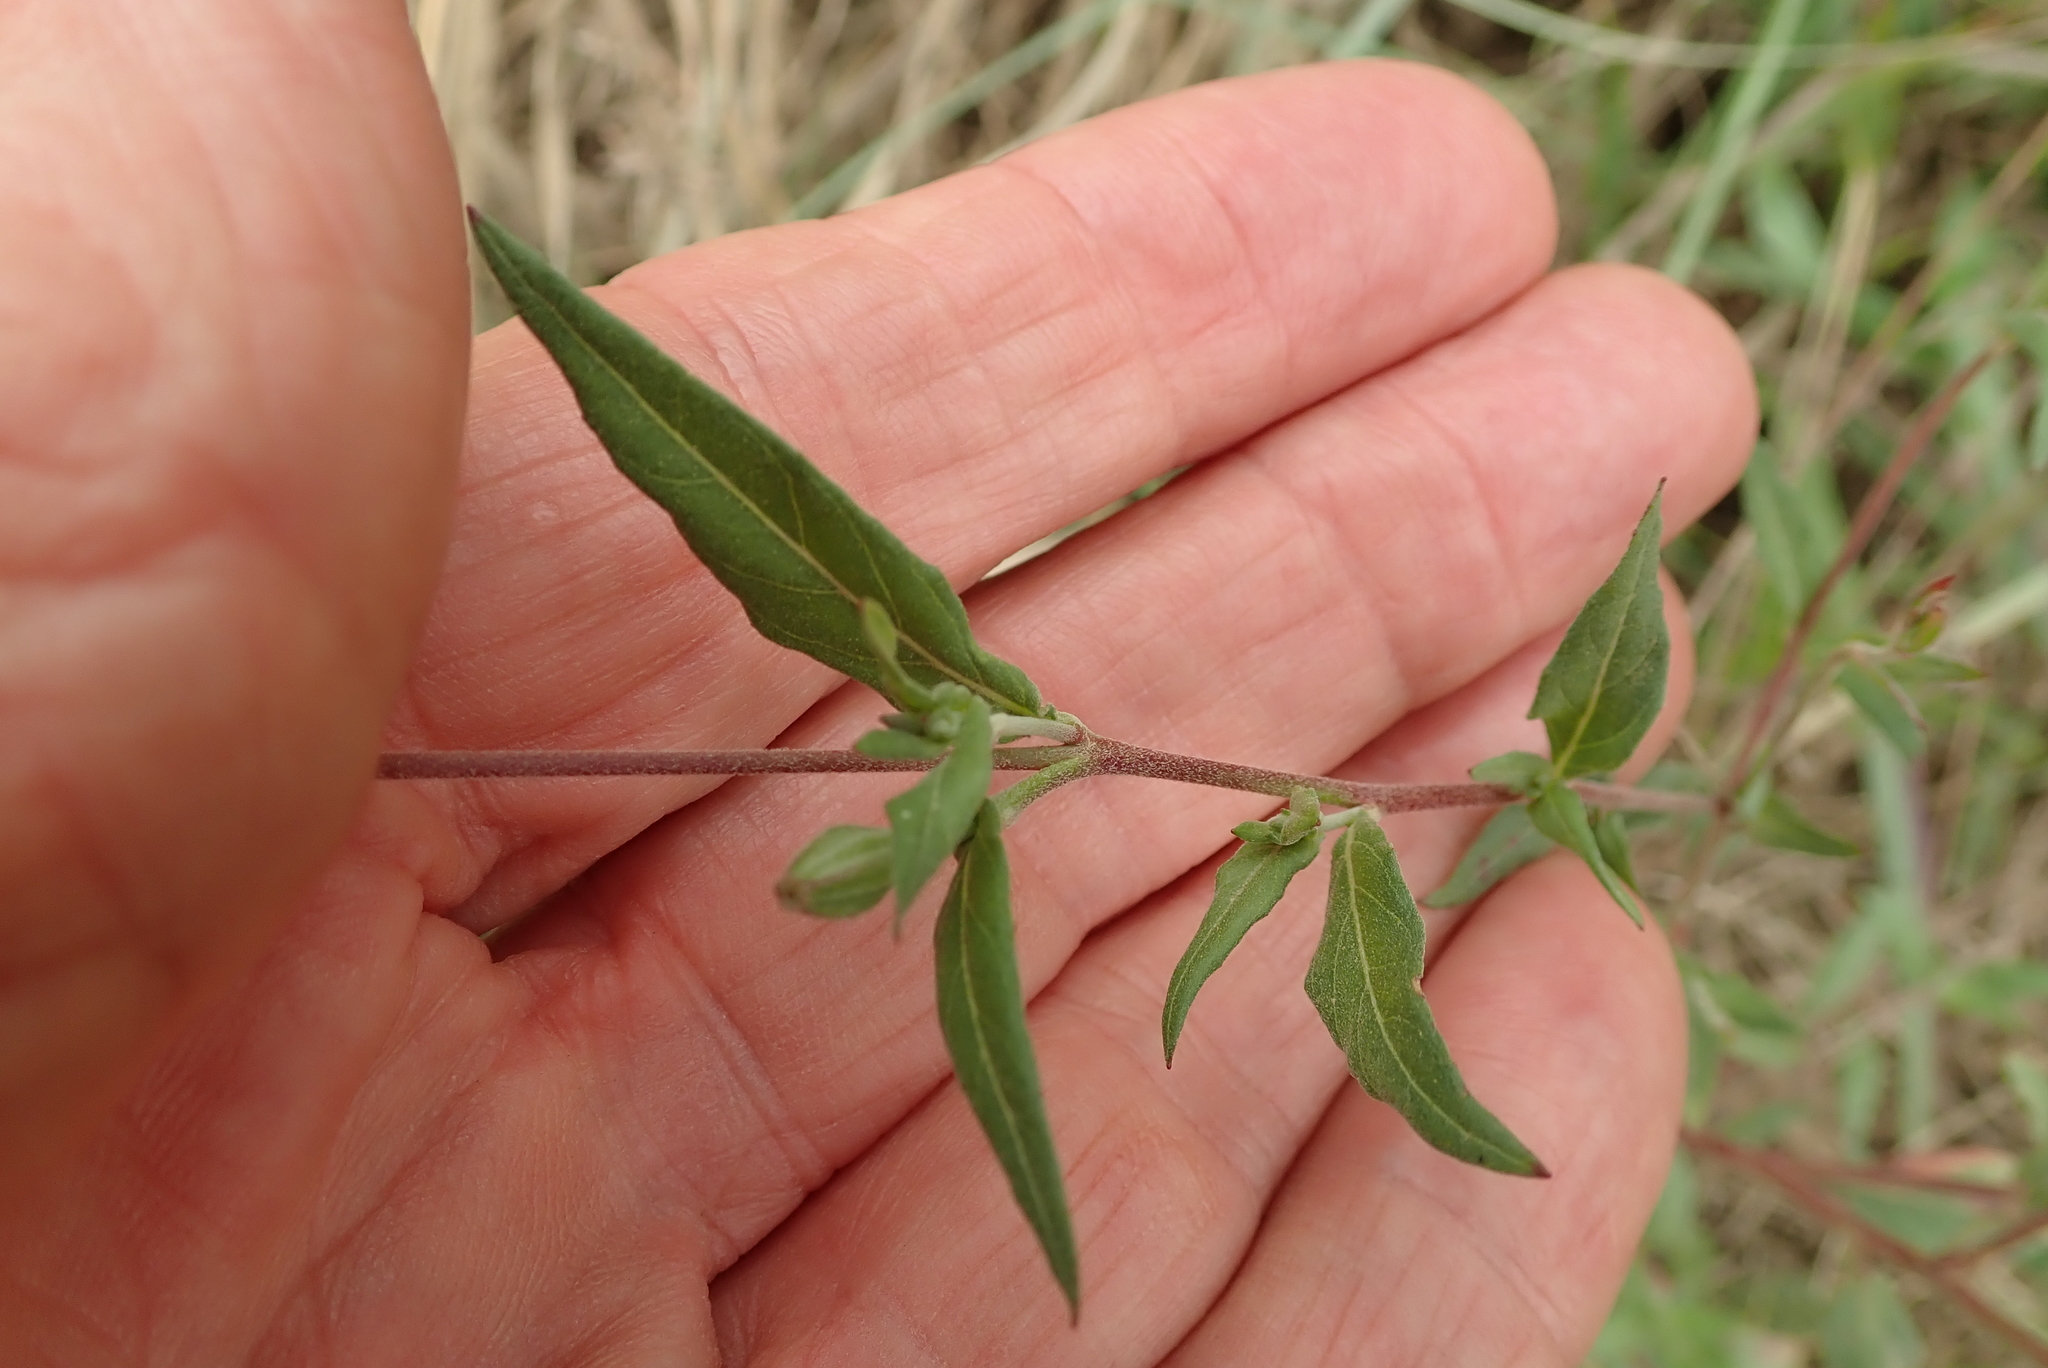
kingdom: Plantae
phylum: Tracheophyta
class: Magnoliopsida
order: Myrtales
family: Onagraceae
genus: Oenothera
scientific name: Oenothera rosea
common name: Rosy evening-primrose
